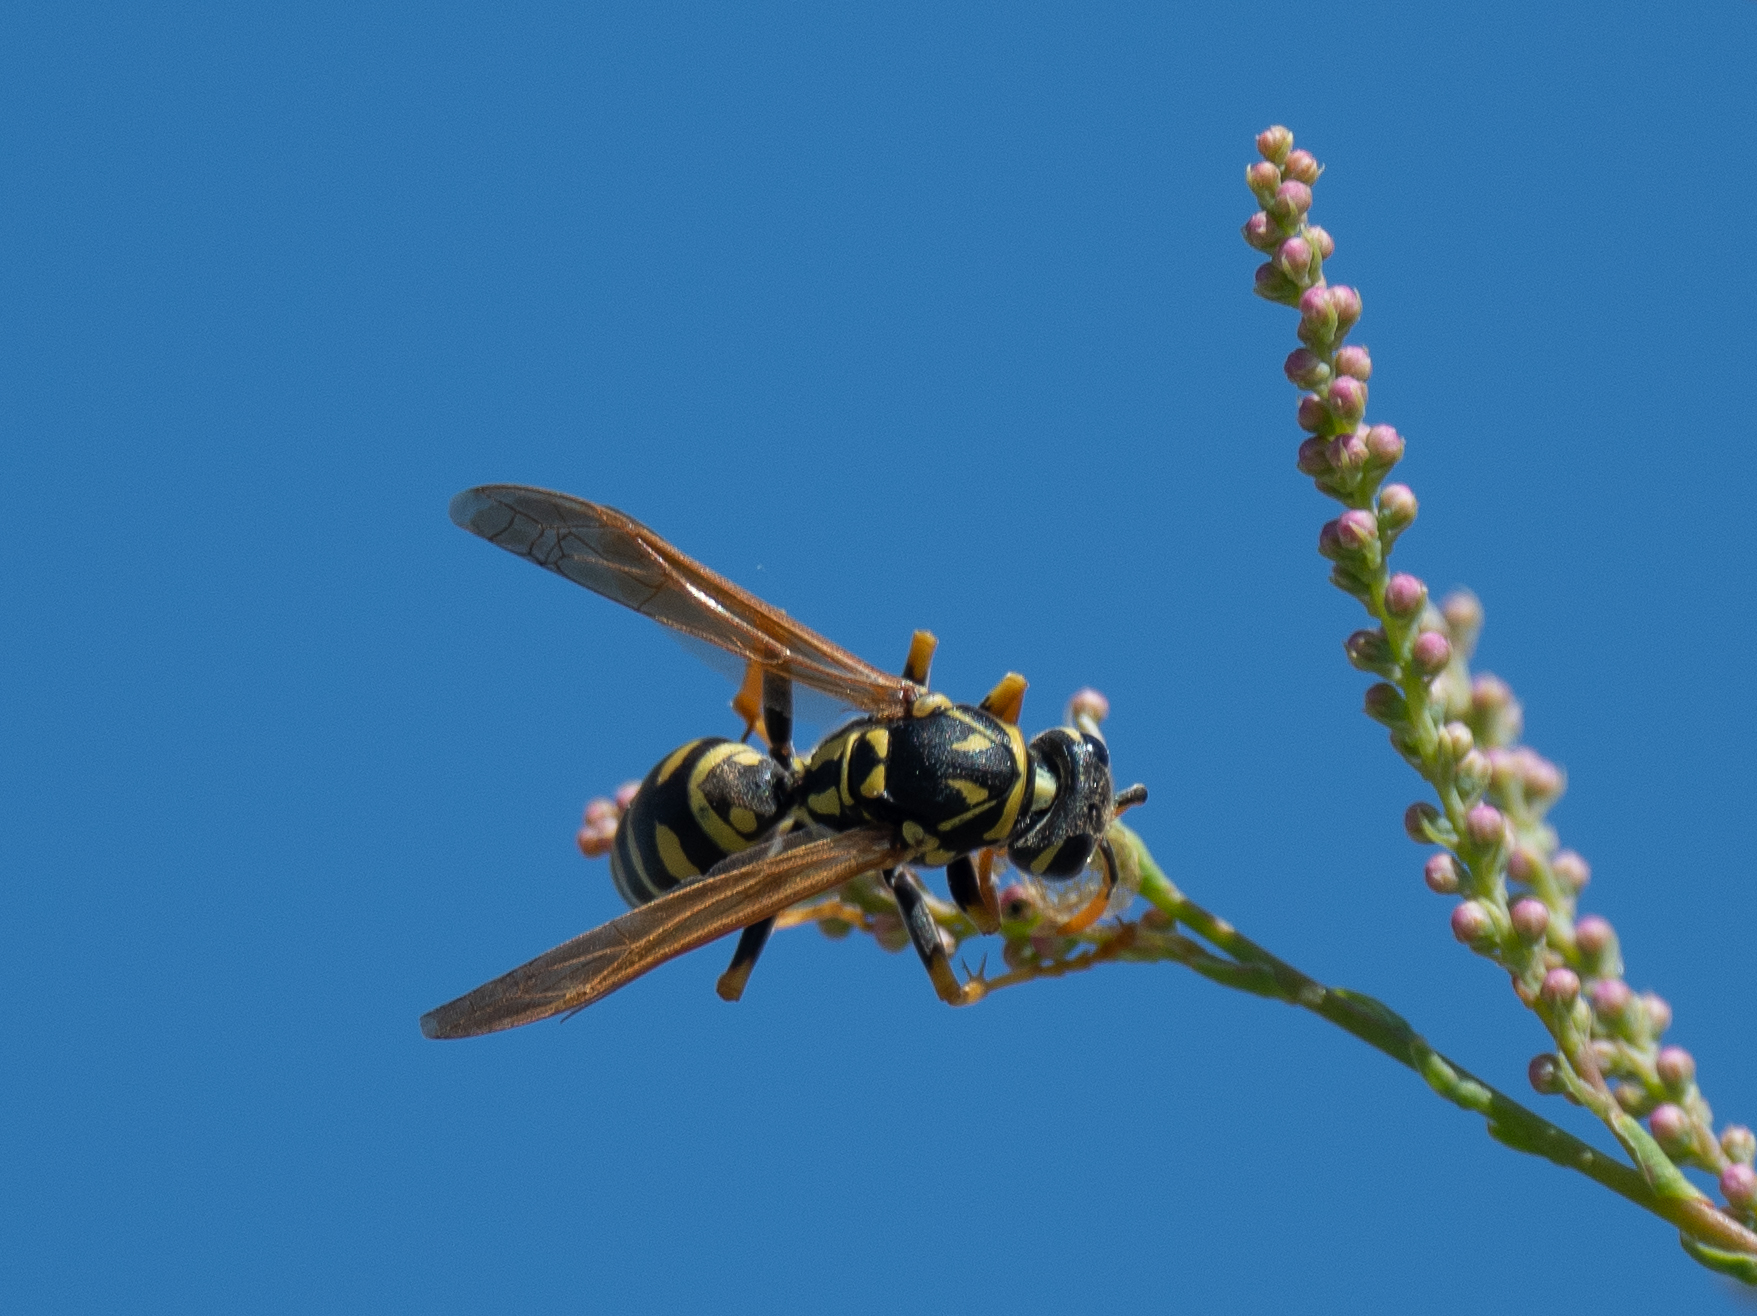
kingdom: Animalia
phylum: Arthropoda
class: Insecta
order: Hymenoptera
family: Eumenidae
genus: Polistes
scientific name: Polistes dominula
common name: Paper wasp
